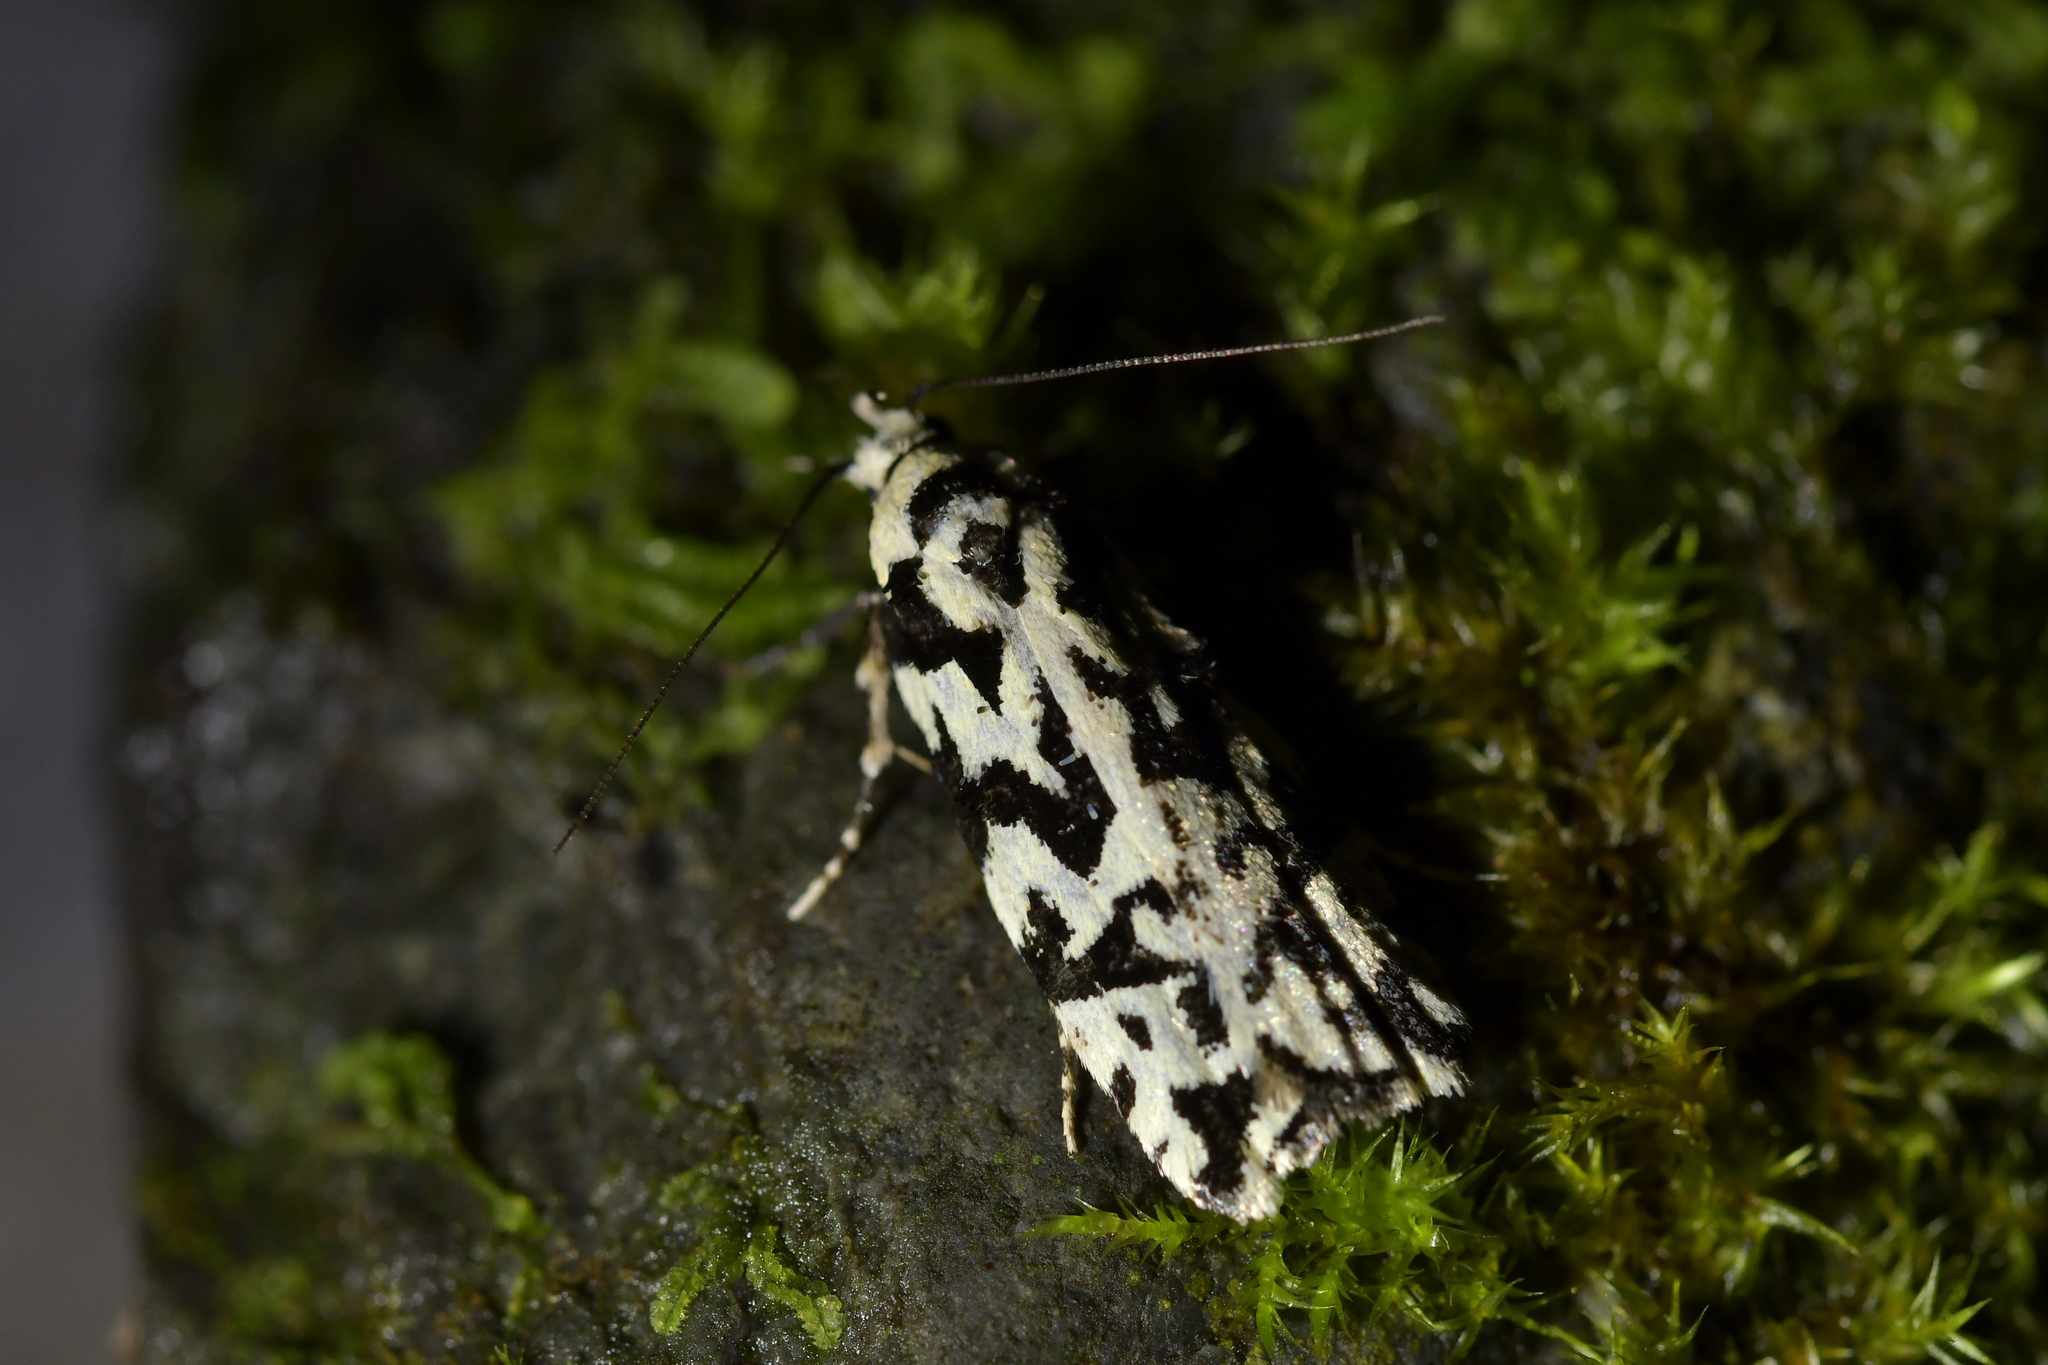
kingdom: Animalia
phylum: Arthropoda
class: Insecta
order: Lepidoptera
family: Oecophoridae
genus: Izatha
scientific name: Izatha
